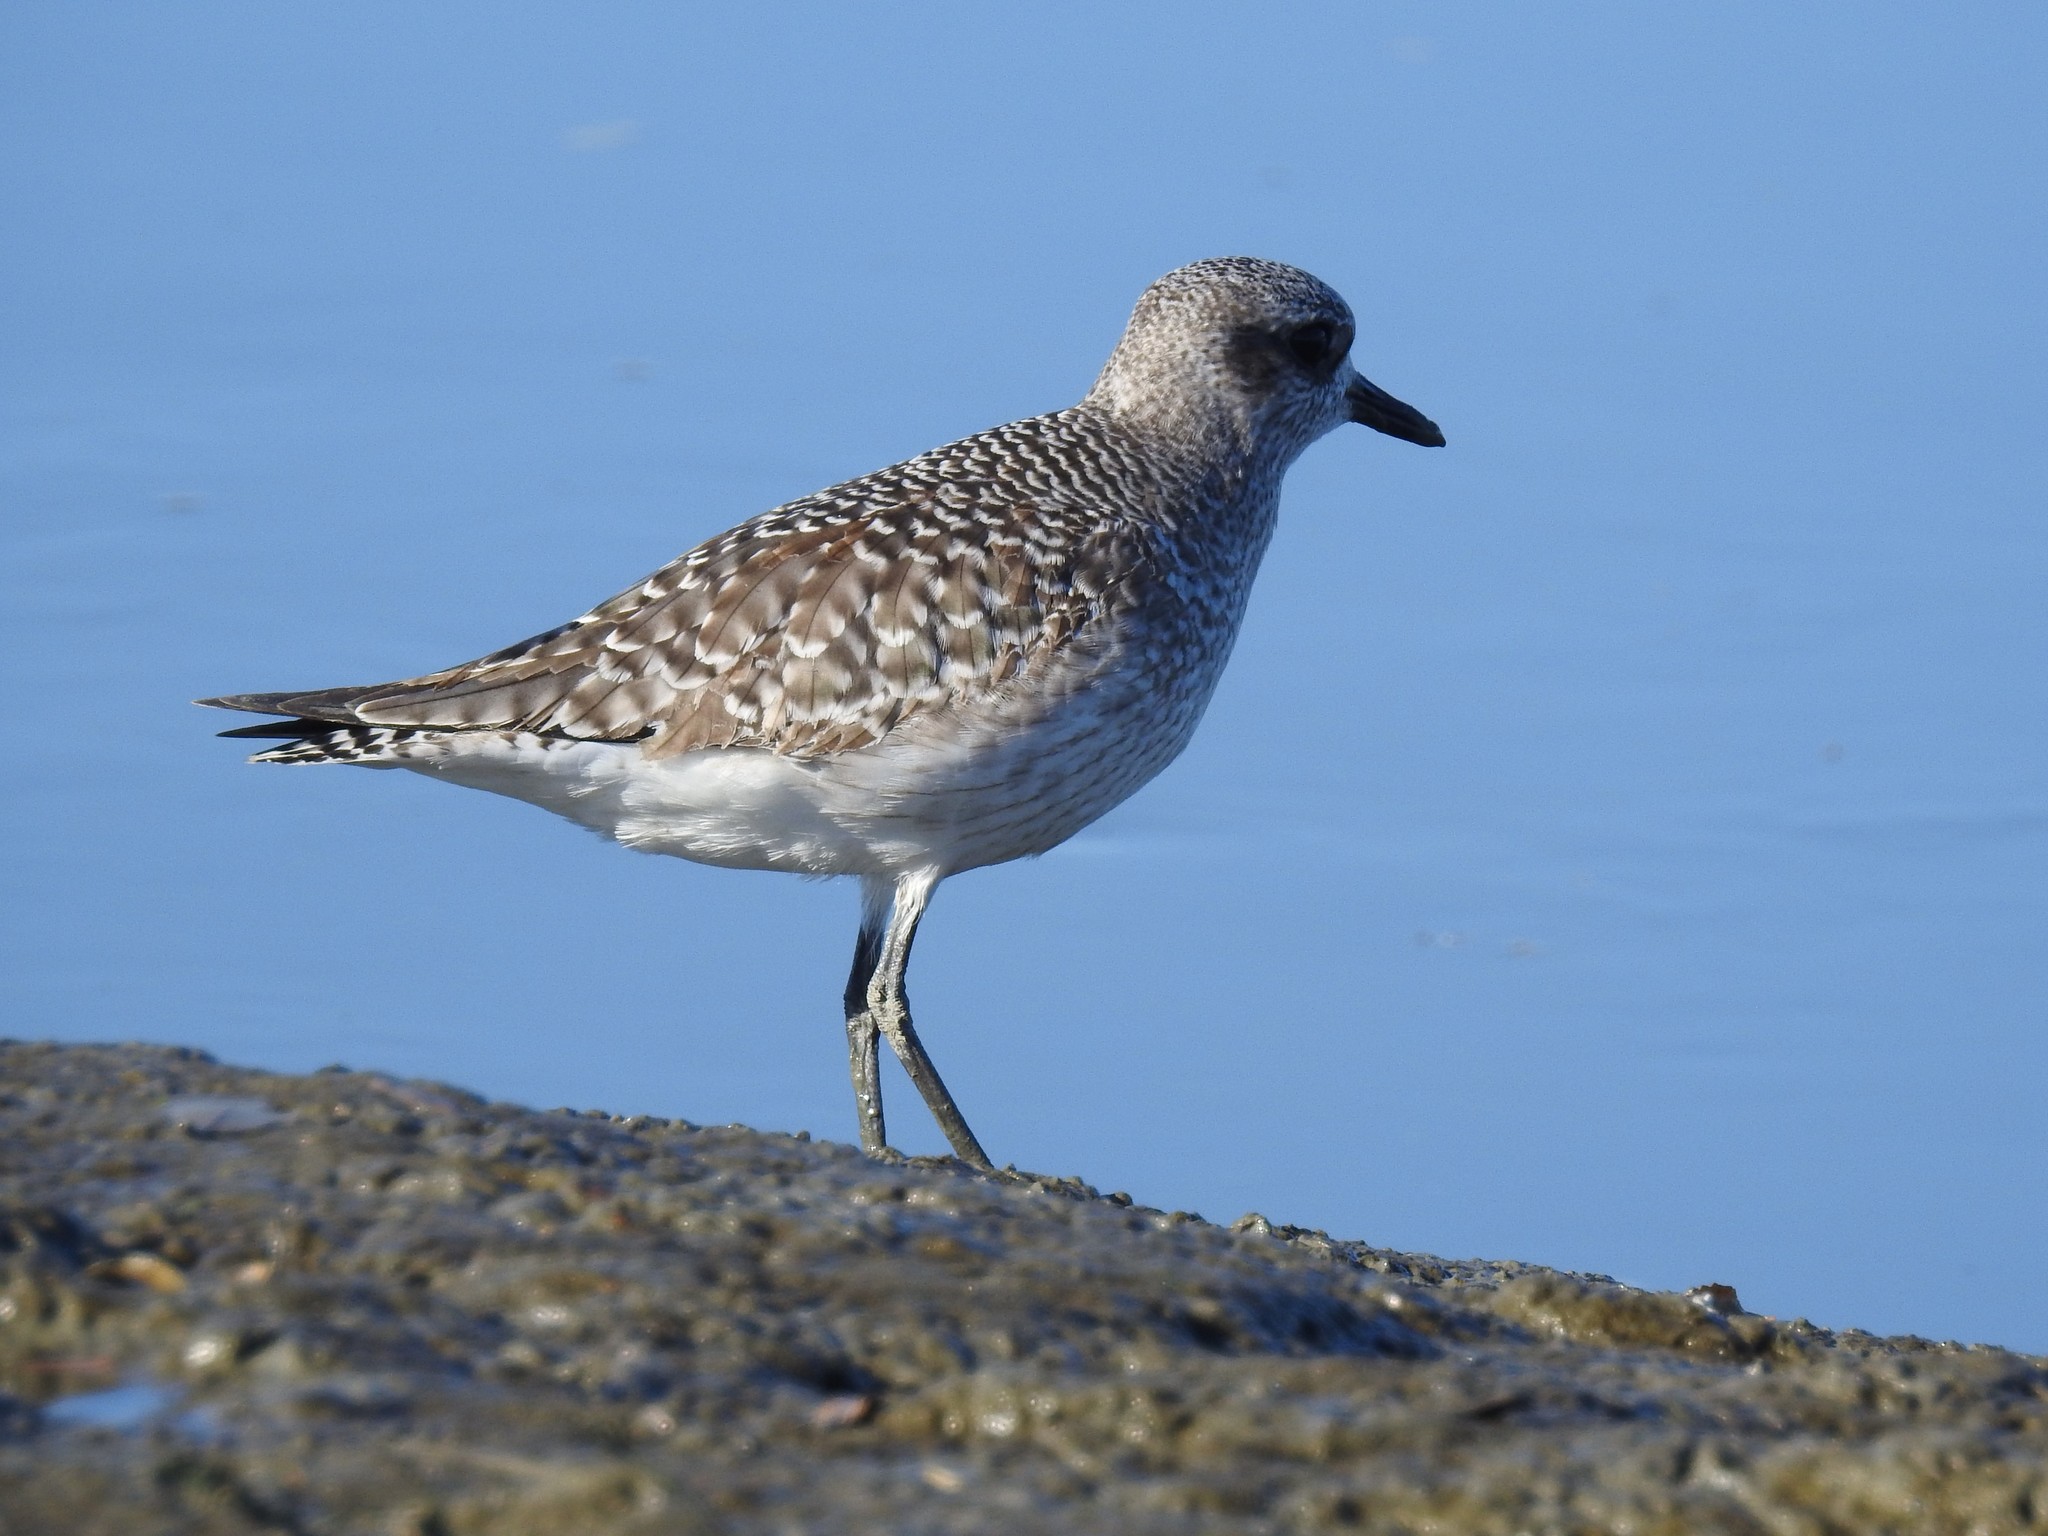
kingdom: Animalia
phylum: Chordata
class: Aves
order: Charadriiformes
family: Charadriidae
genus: Pluvialis
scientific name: Pluvialis squatarola
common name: Grey plover
